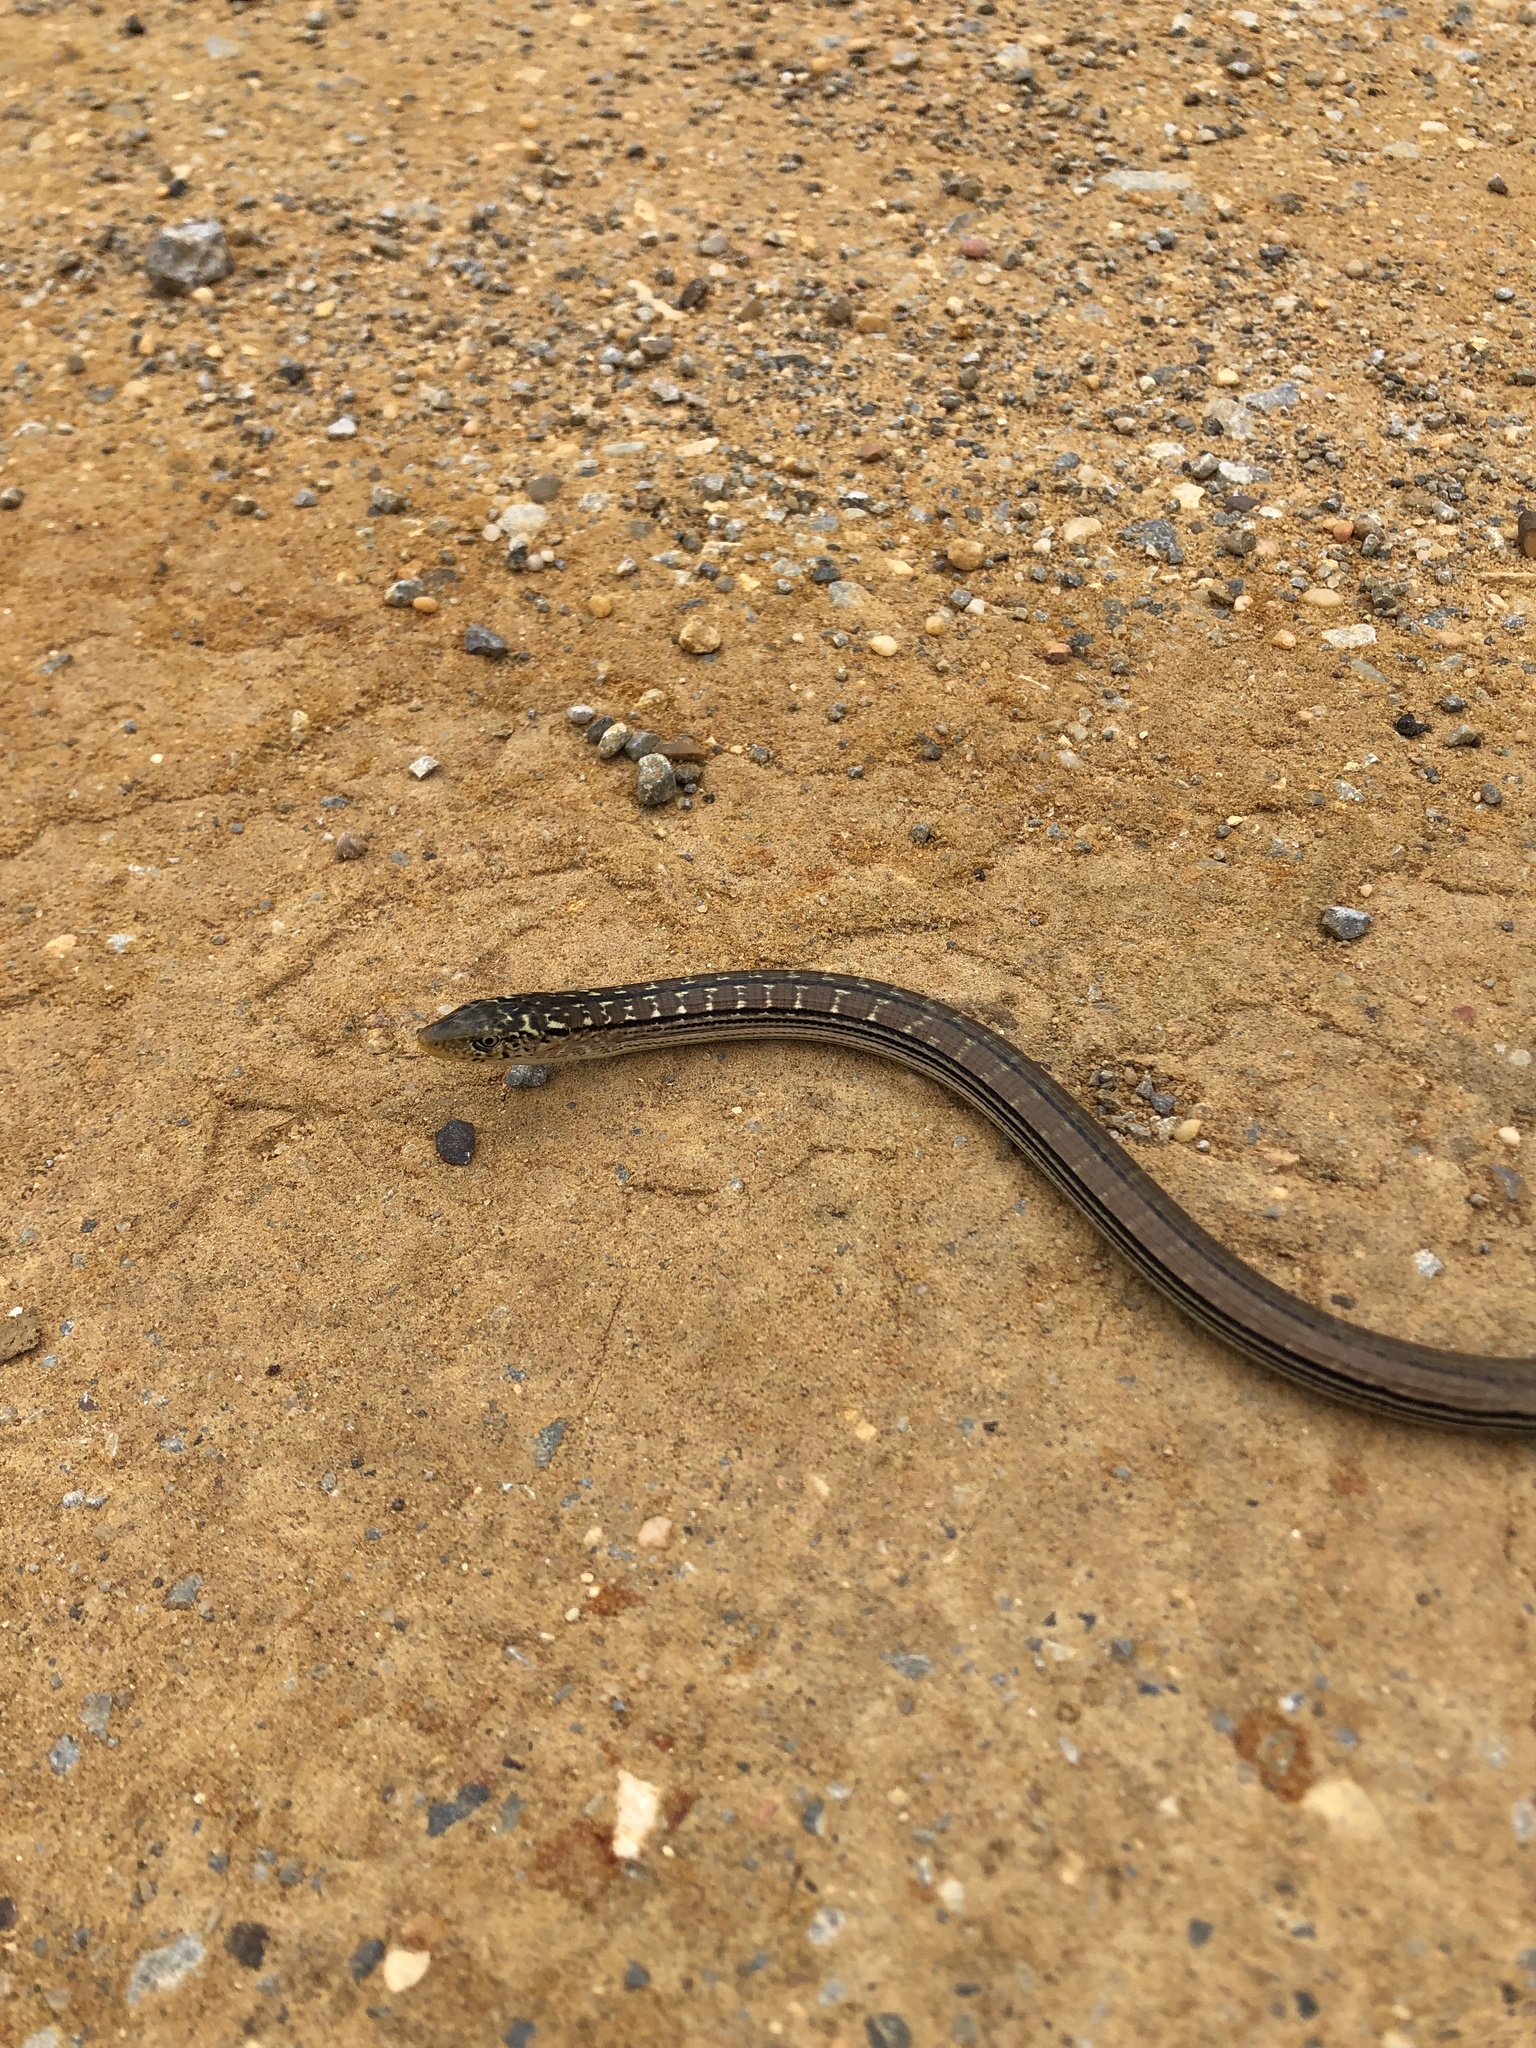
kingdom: Animalia
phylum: Chordata
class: Squamata
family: Anguidae
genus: Ophisaurus
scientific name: Ophisaurus attenuatus
